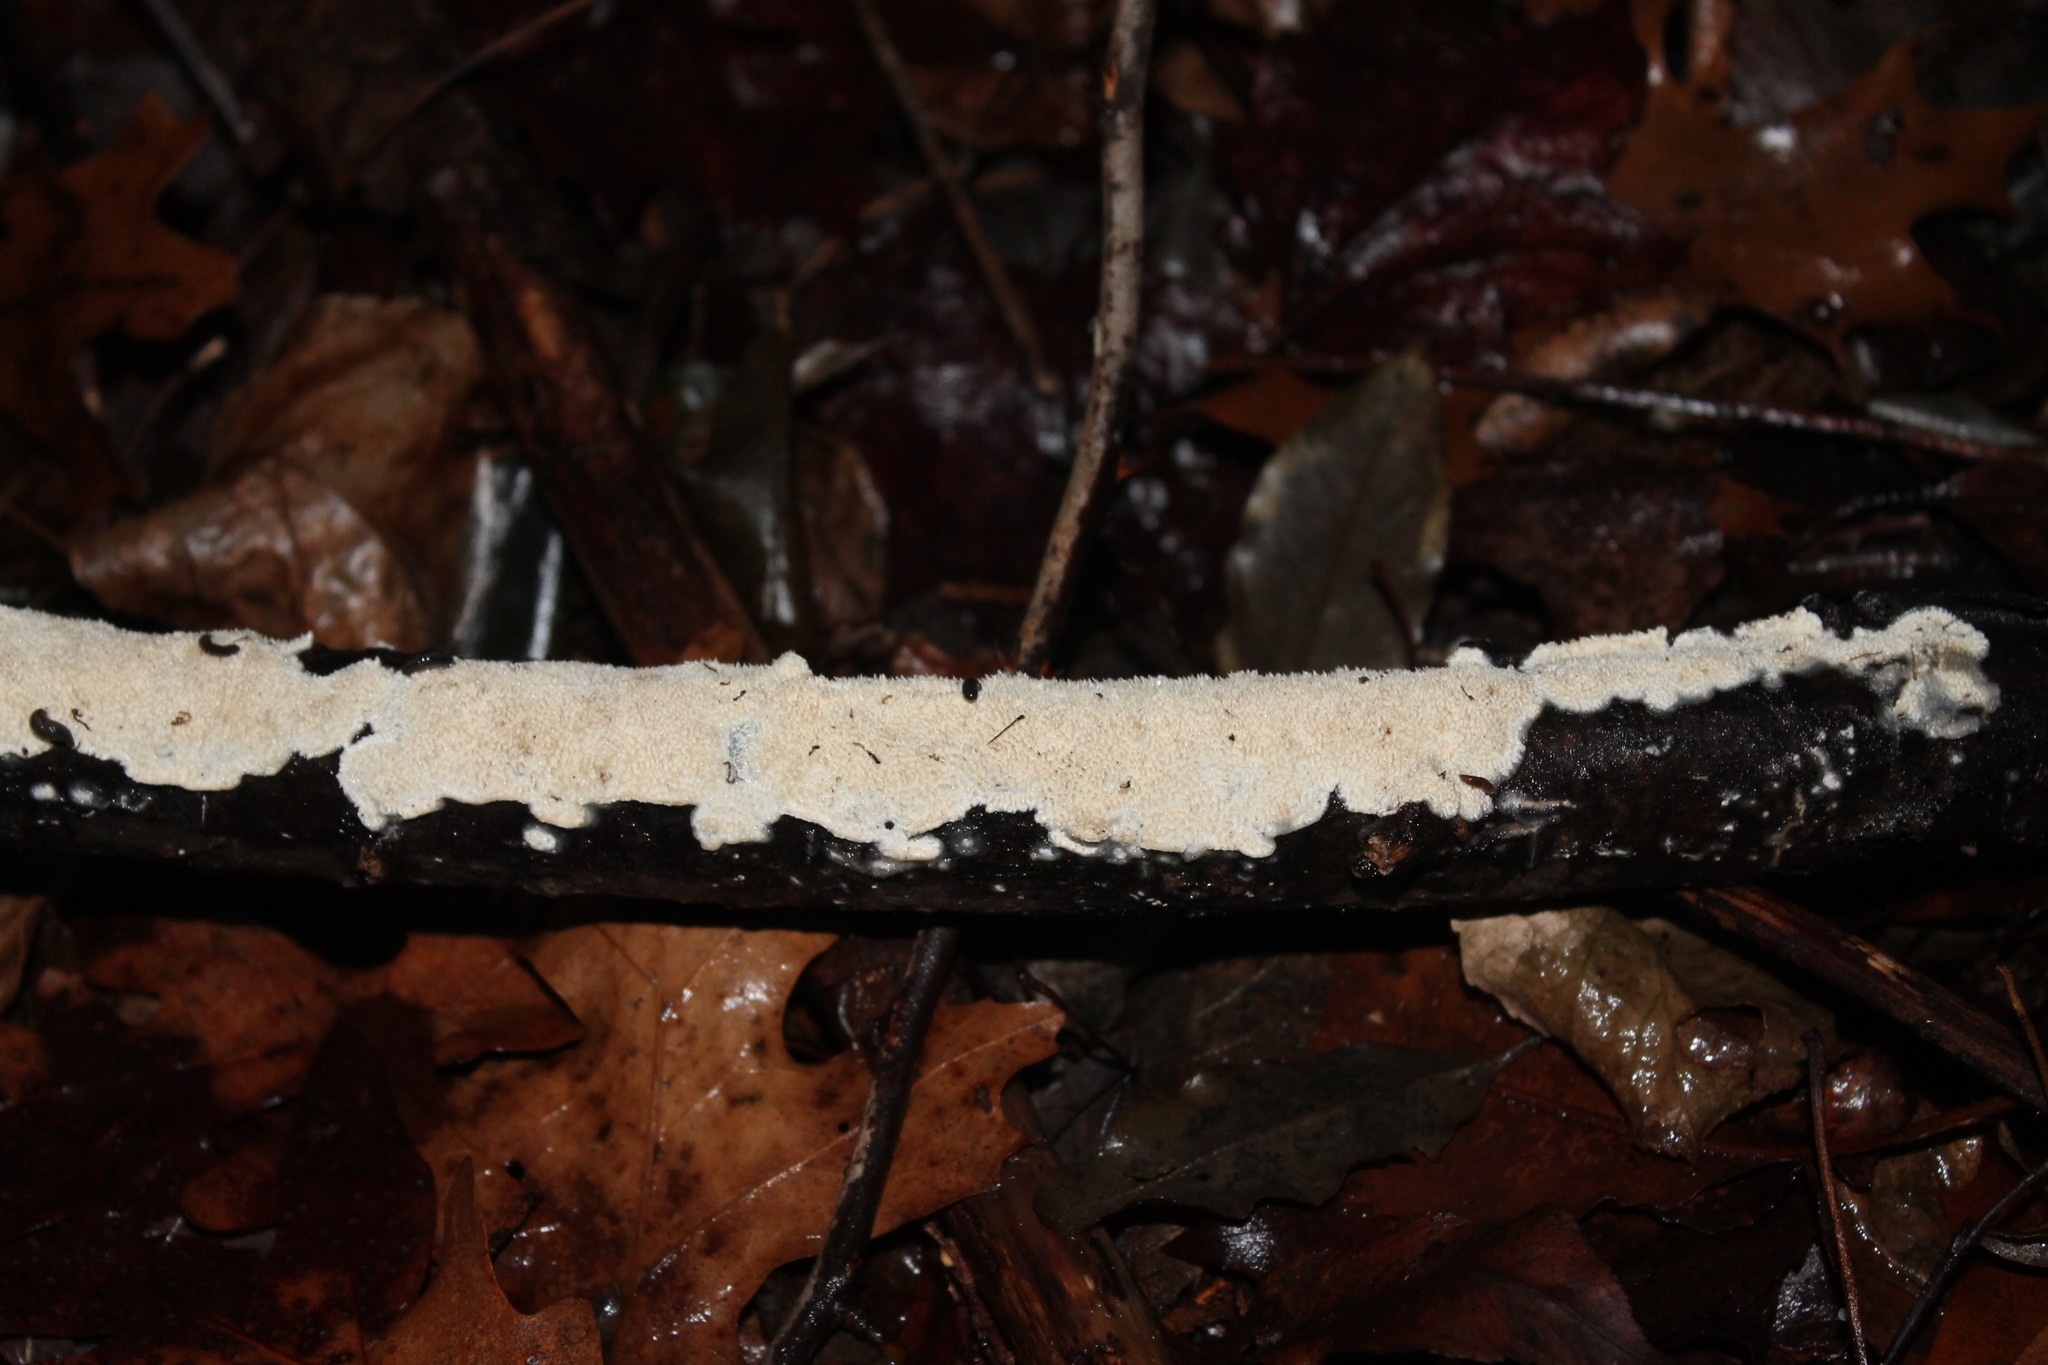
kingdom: Fungi
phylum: Basidiomycota
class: Agaricomycetes
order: Polyporales
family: Irpicaceae
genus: Irpex
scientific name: Irpex lacteus
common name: Milk-white toothed polypore
